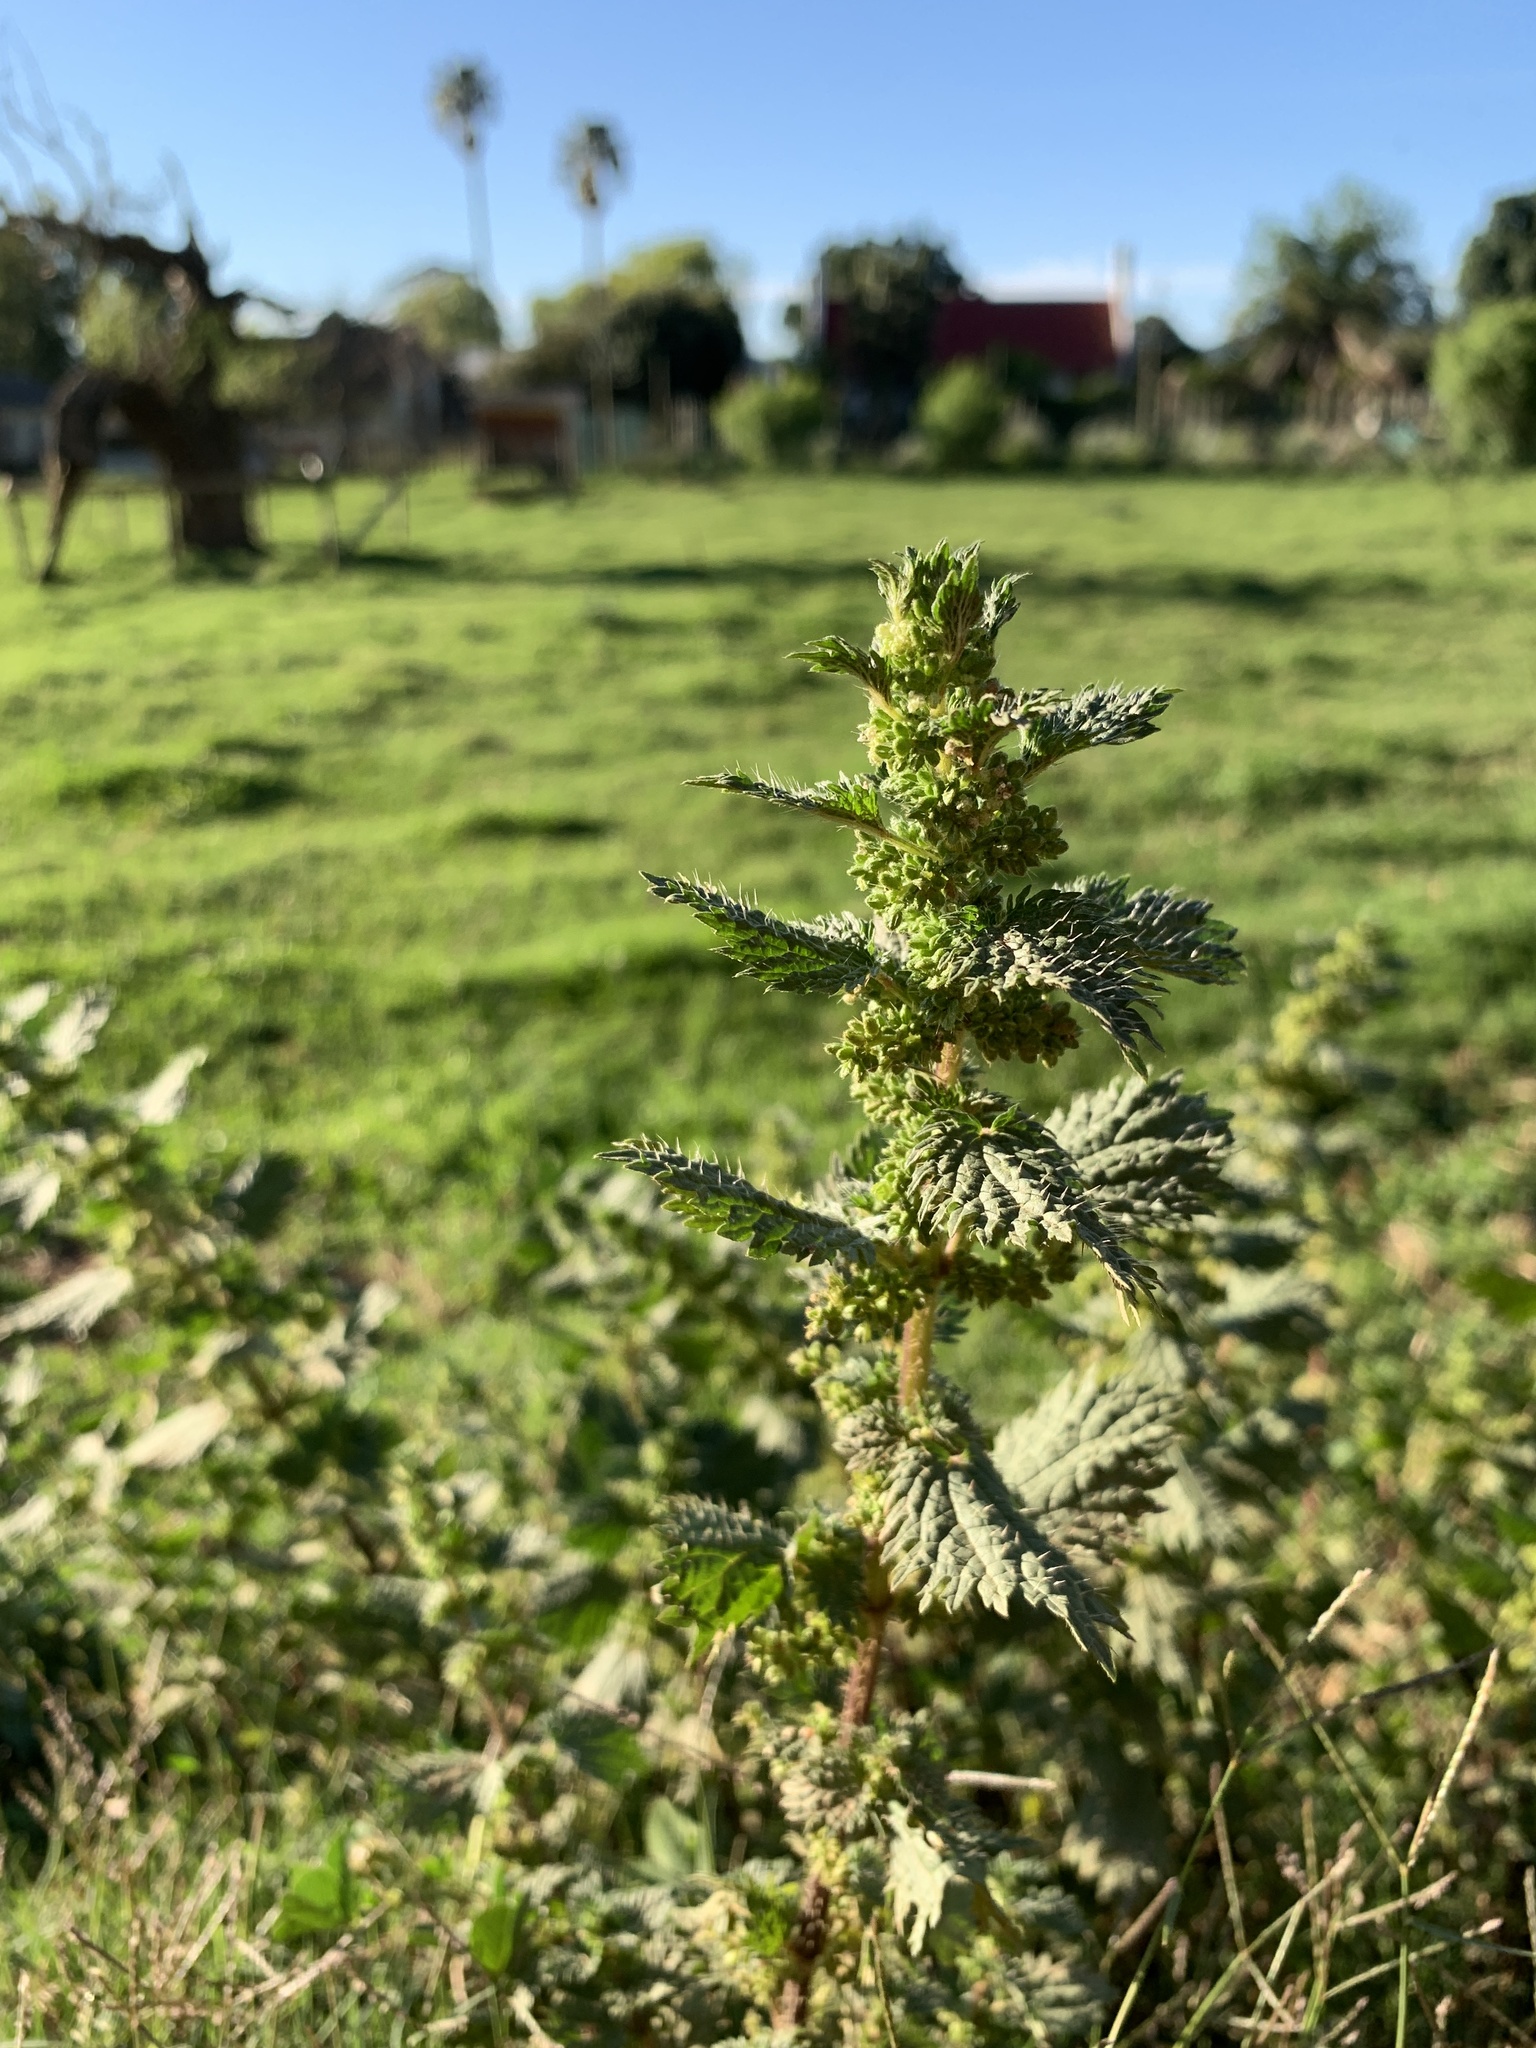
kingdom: Plantae
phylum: Tracheophyta
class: Magnoliopsida
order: Rosales
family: Urticaceae
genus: Urtica
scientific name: Urtica urens
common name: Dwarf nettle
